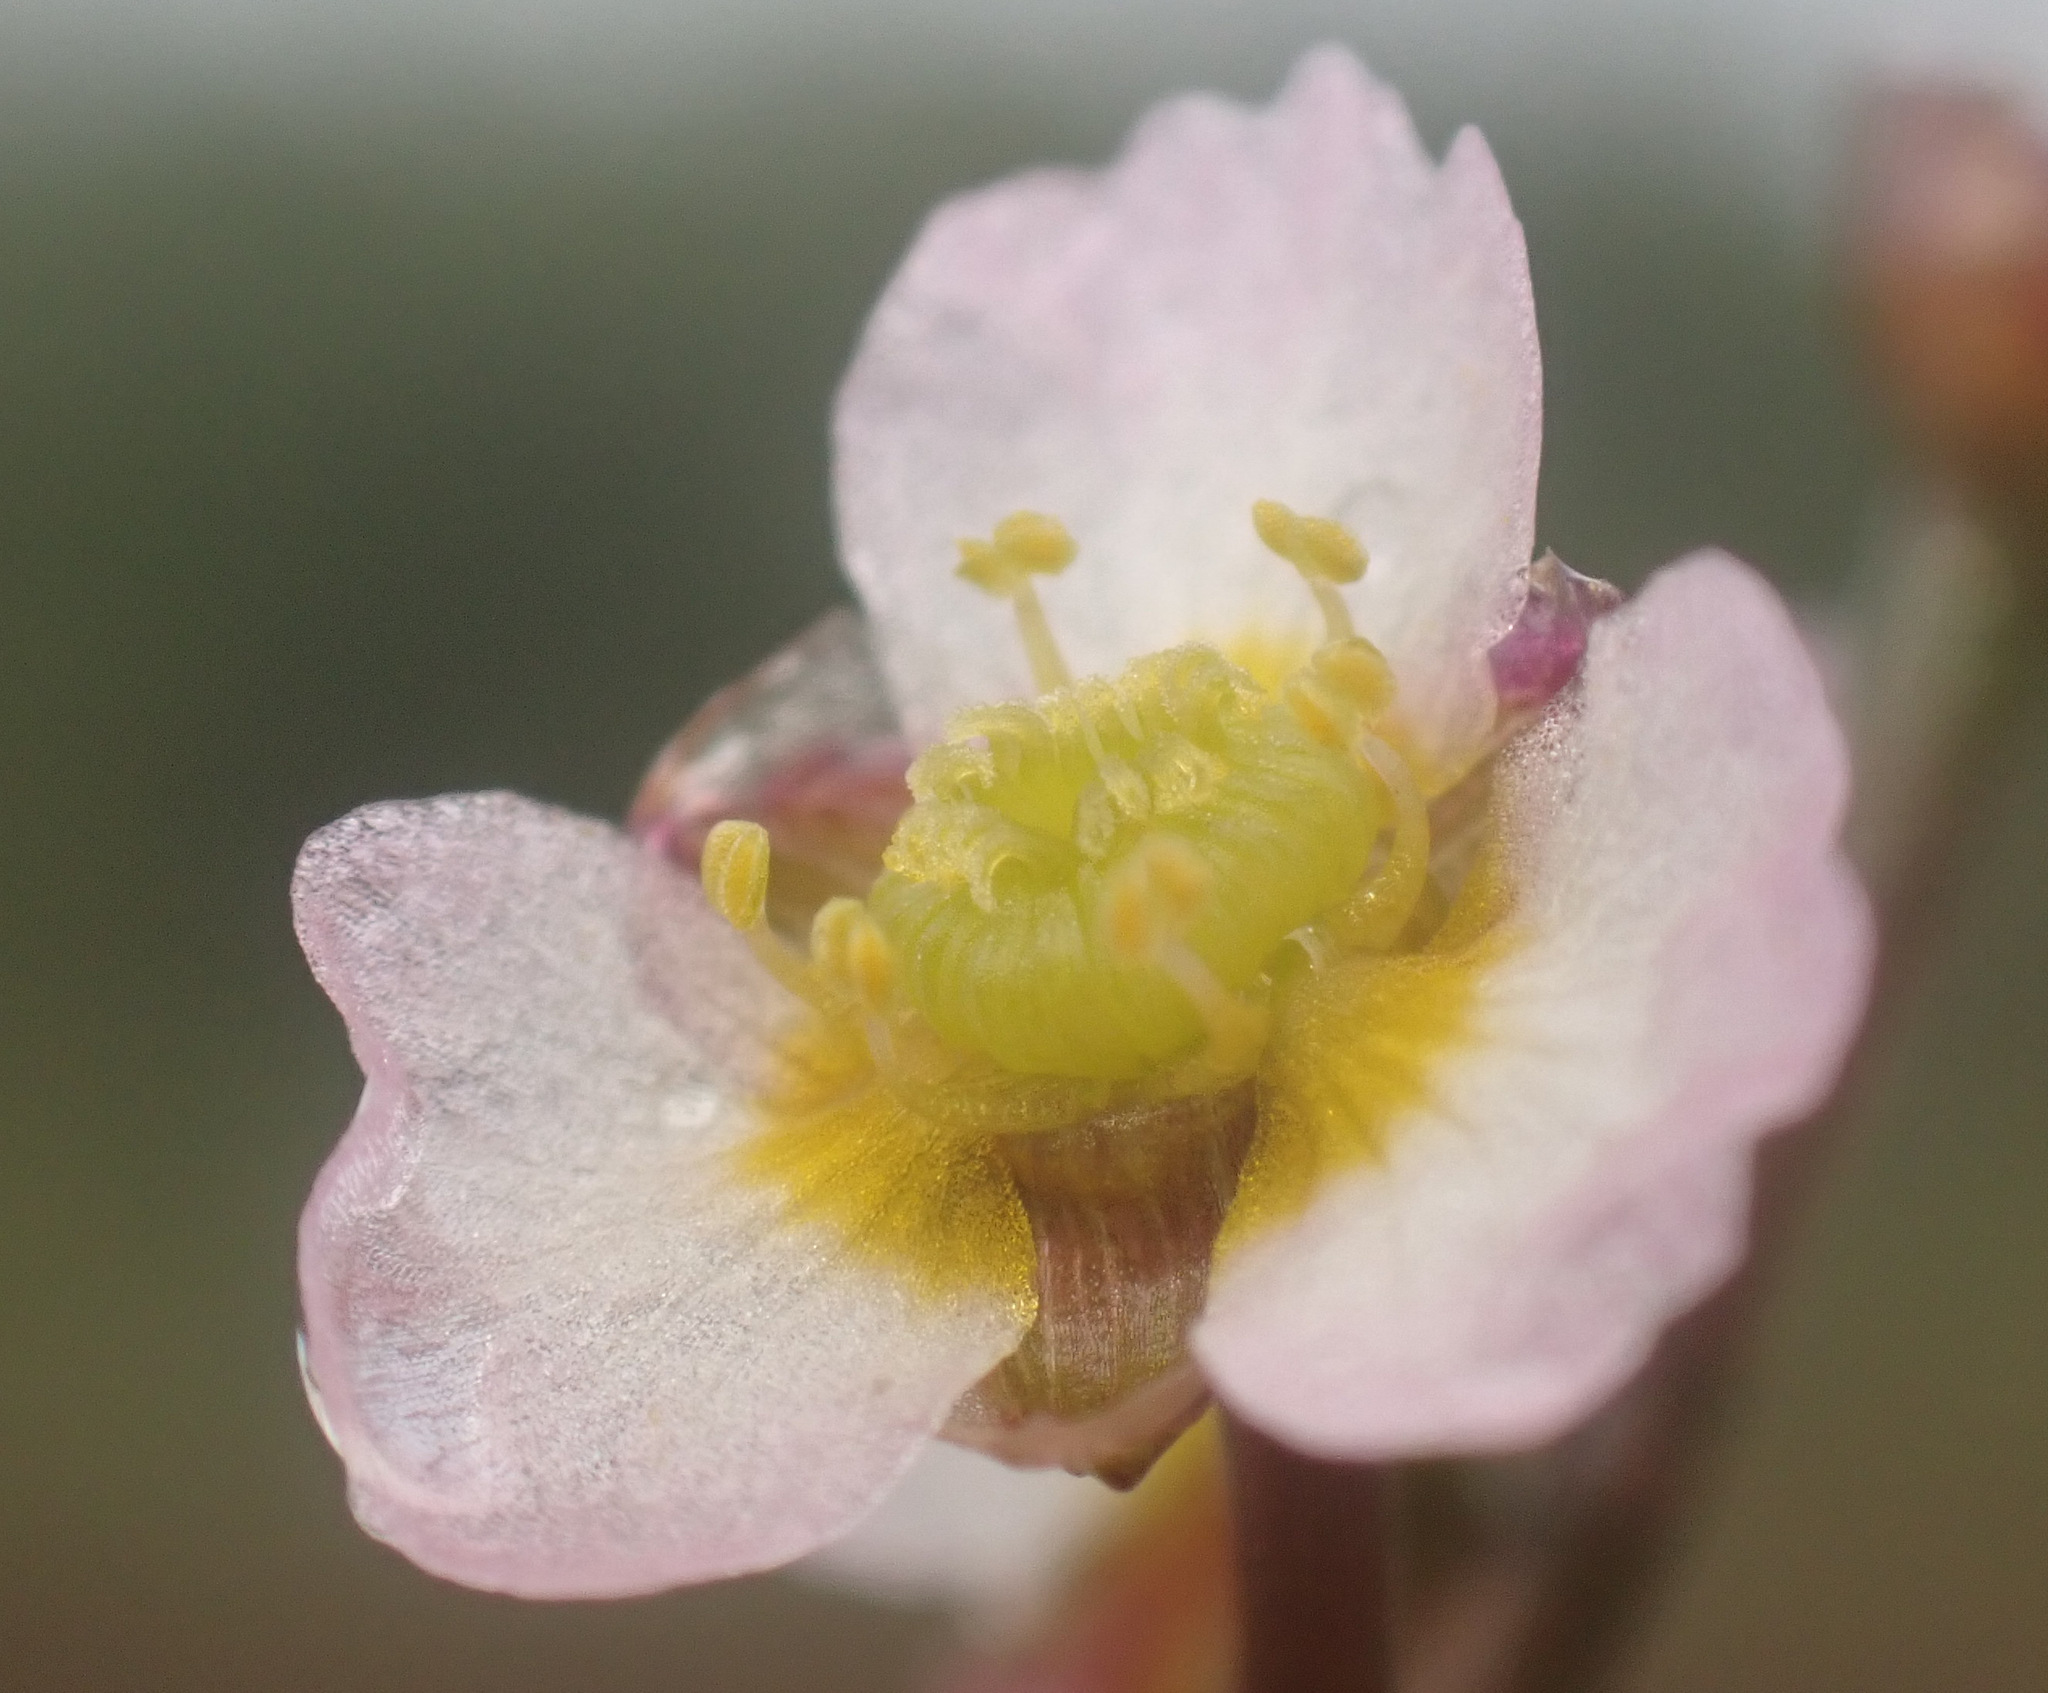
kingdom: Plantae
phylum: Tracheophyta
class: Liliopsida
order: Alismatales
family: Alismataceae
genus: Alisma
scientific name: Alisma gramineum
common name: Ribbon-leaved water-plantain
